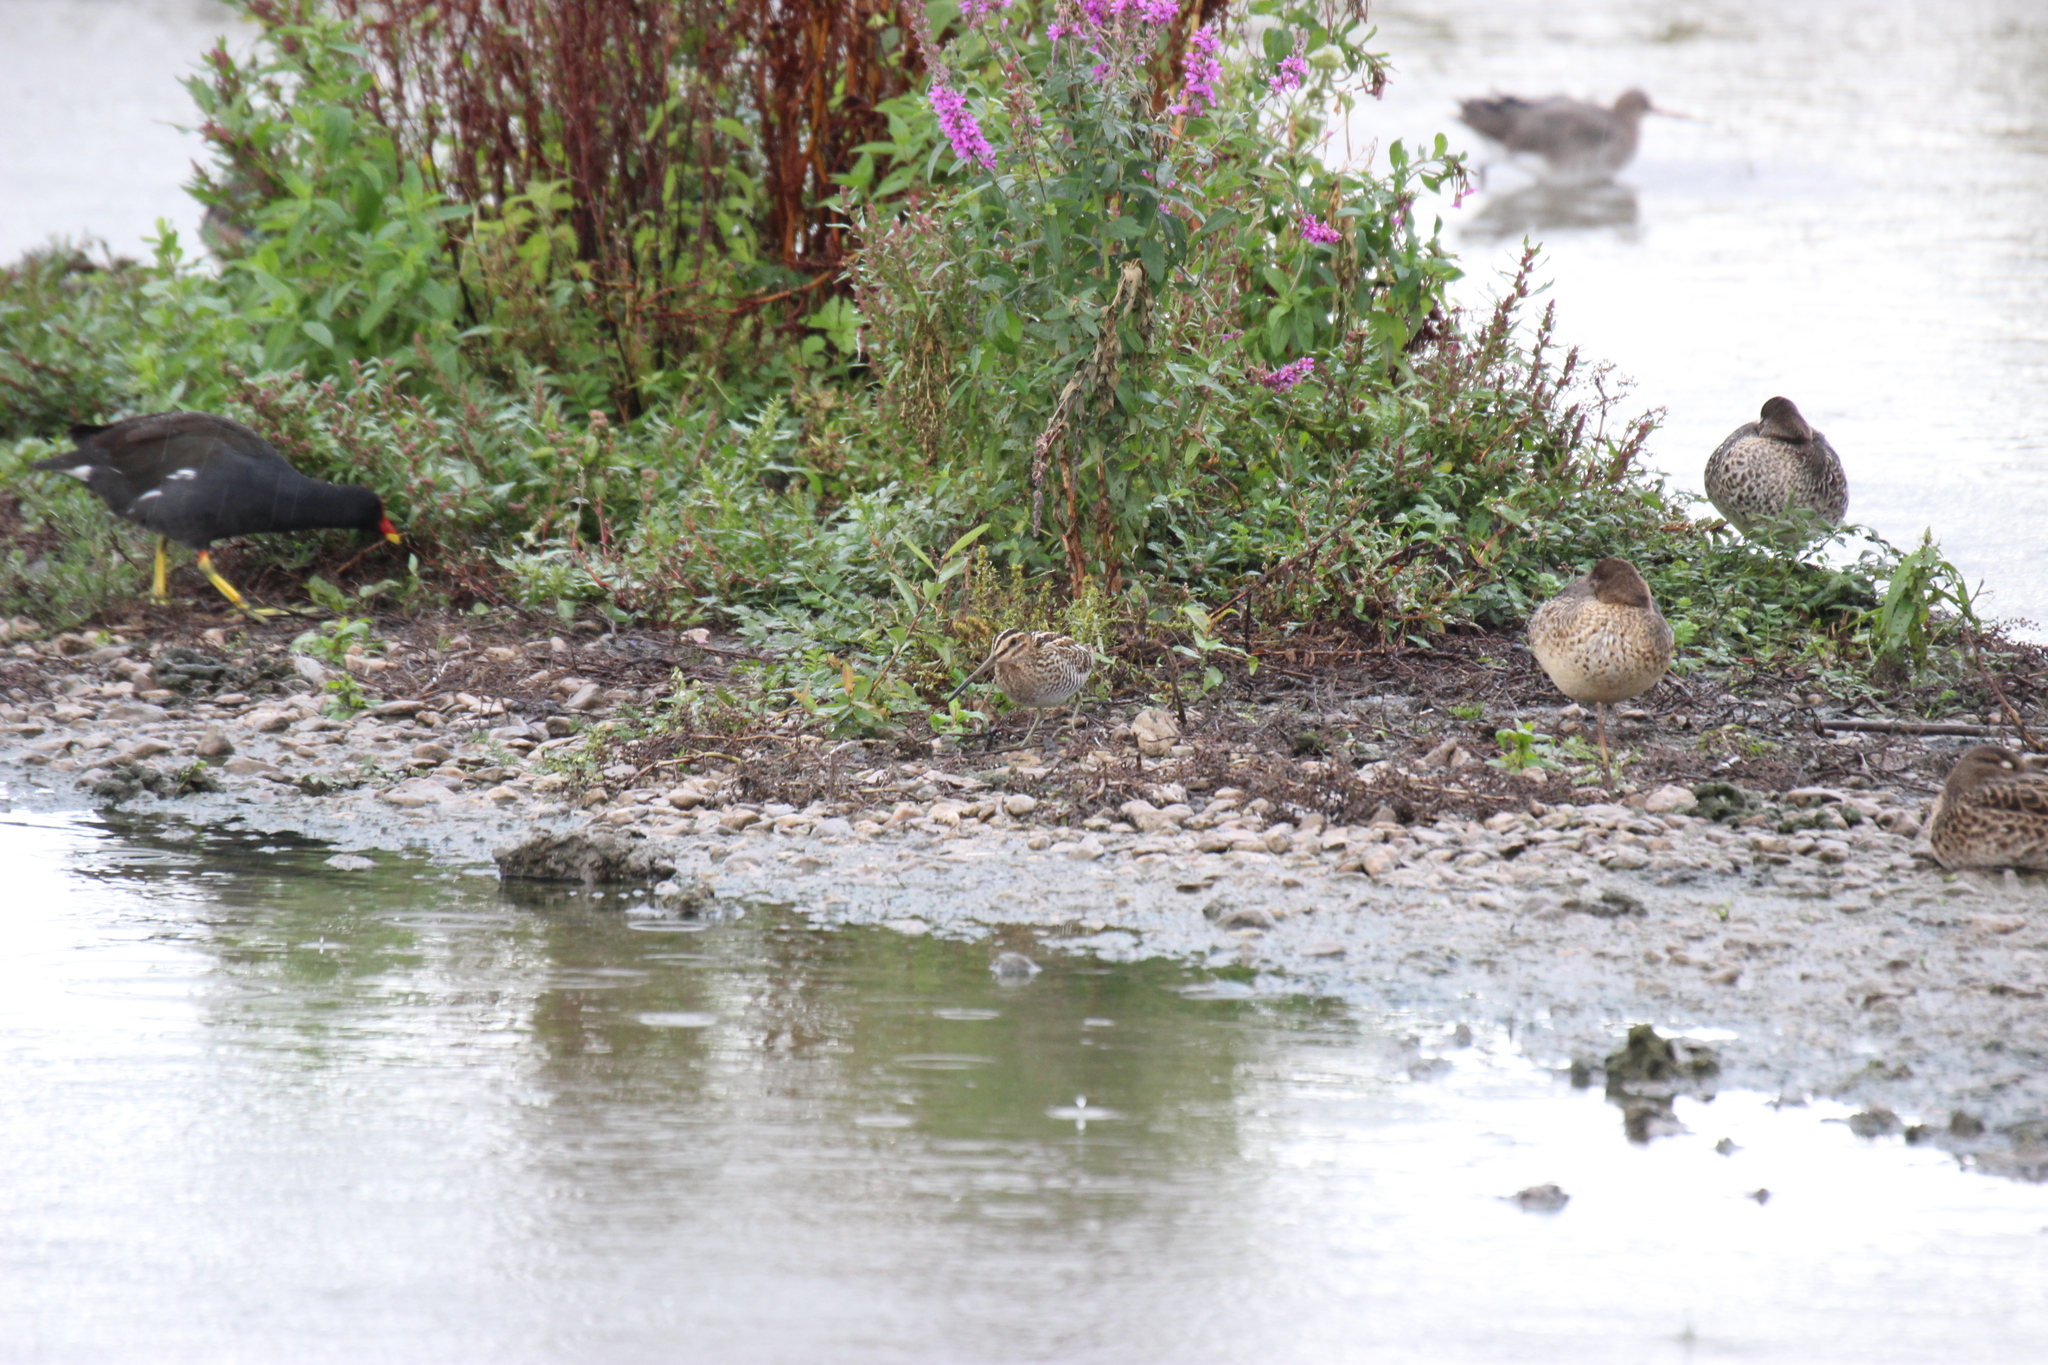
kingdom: Animalia
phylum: Chordata
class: Aves
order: Charadriiformes
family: Scolopacidae
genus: Gallinago
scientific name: Gallinago gallinago
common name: Common snipe
